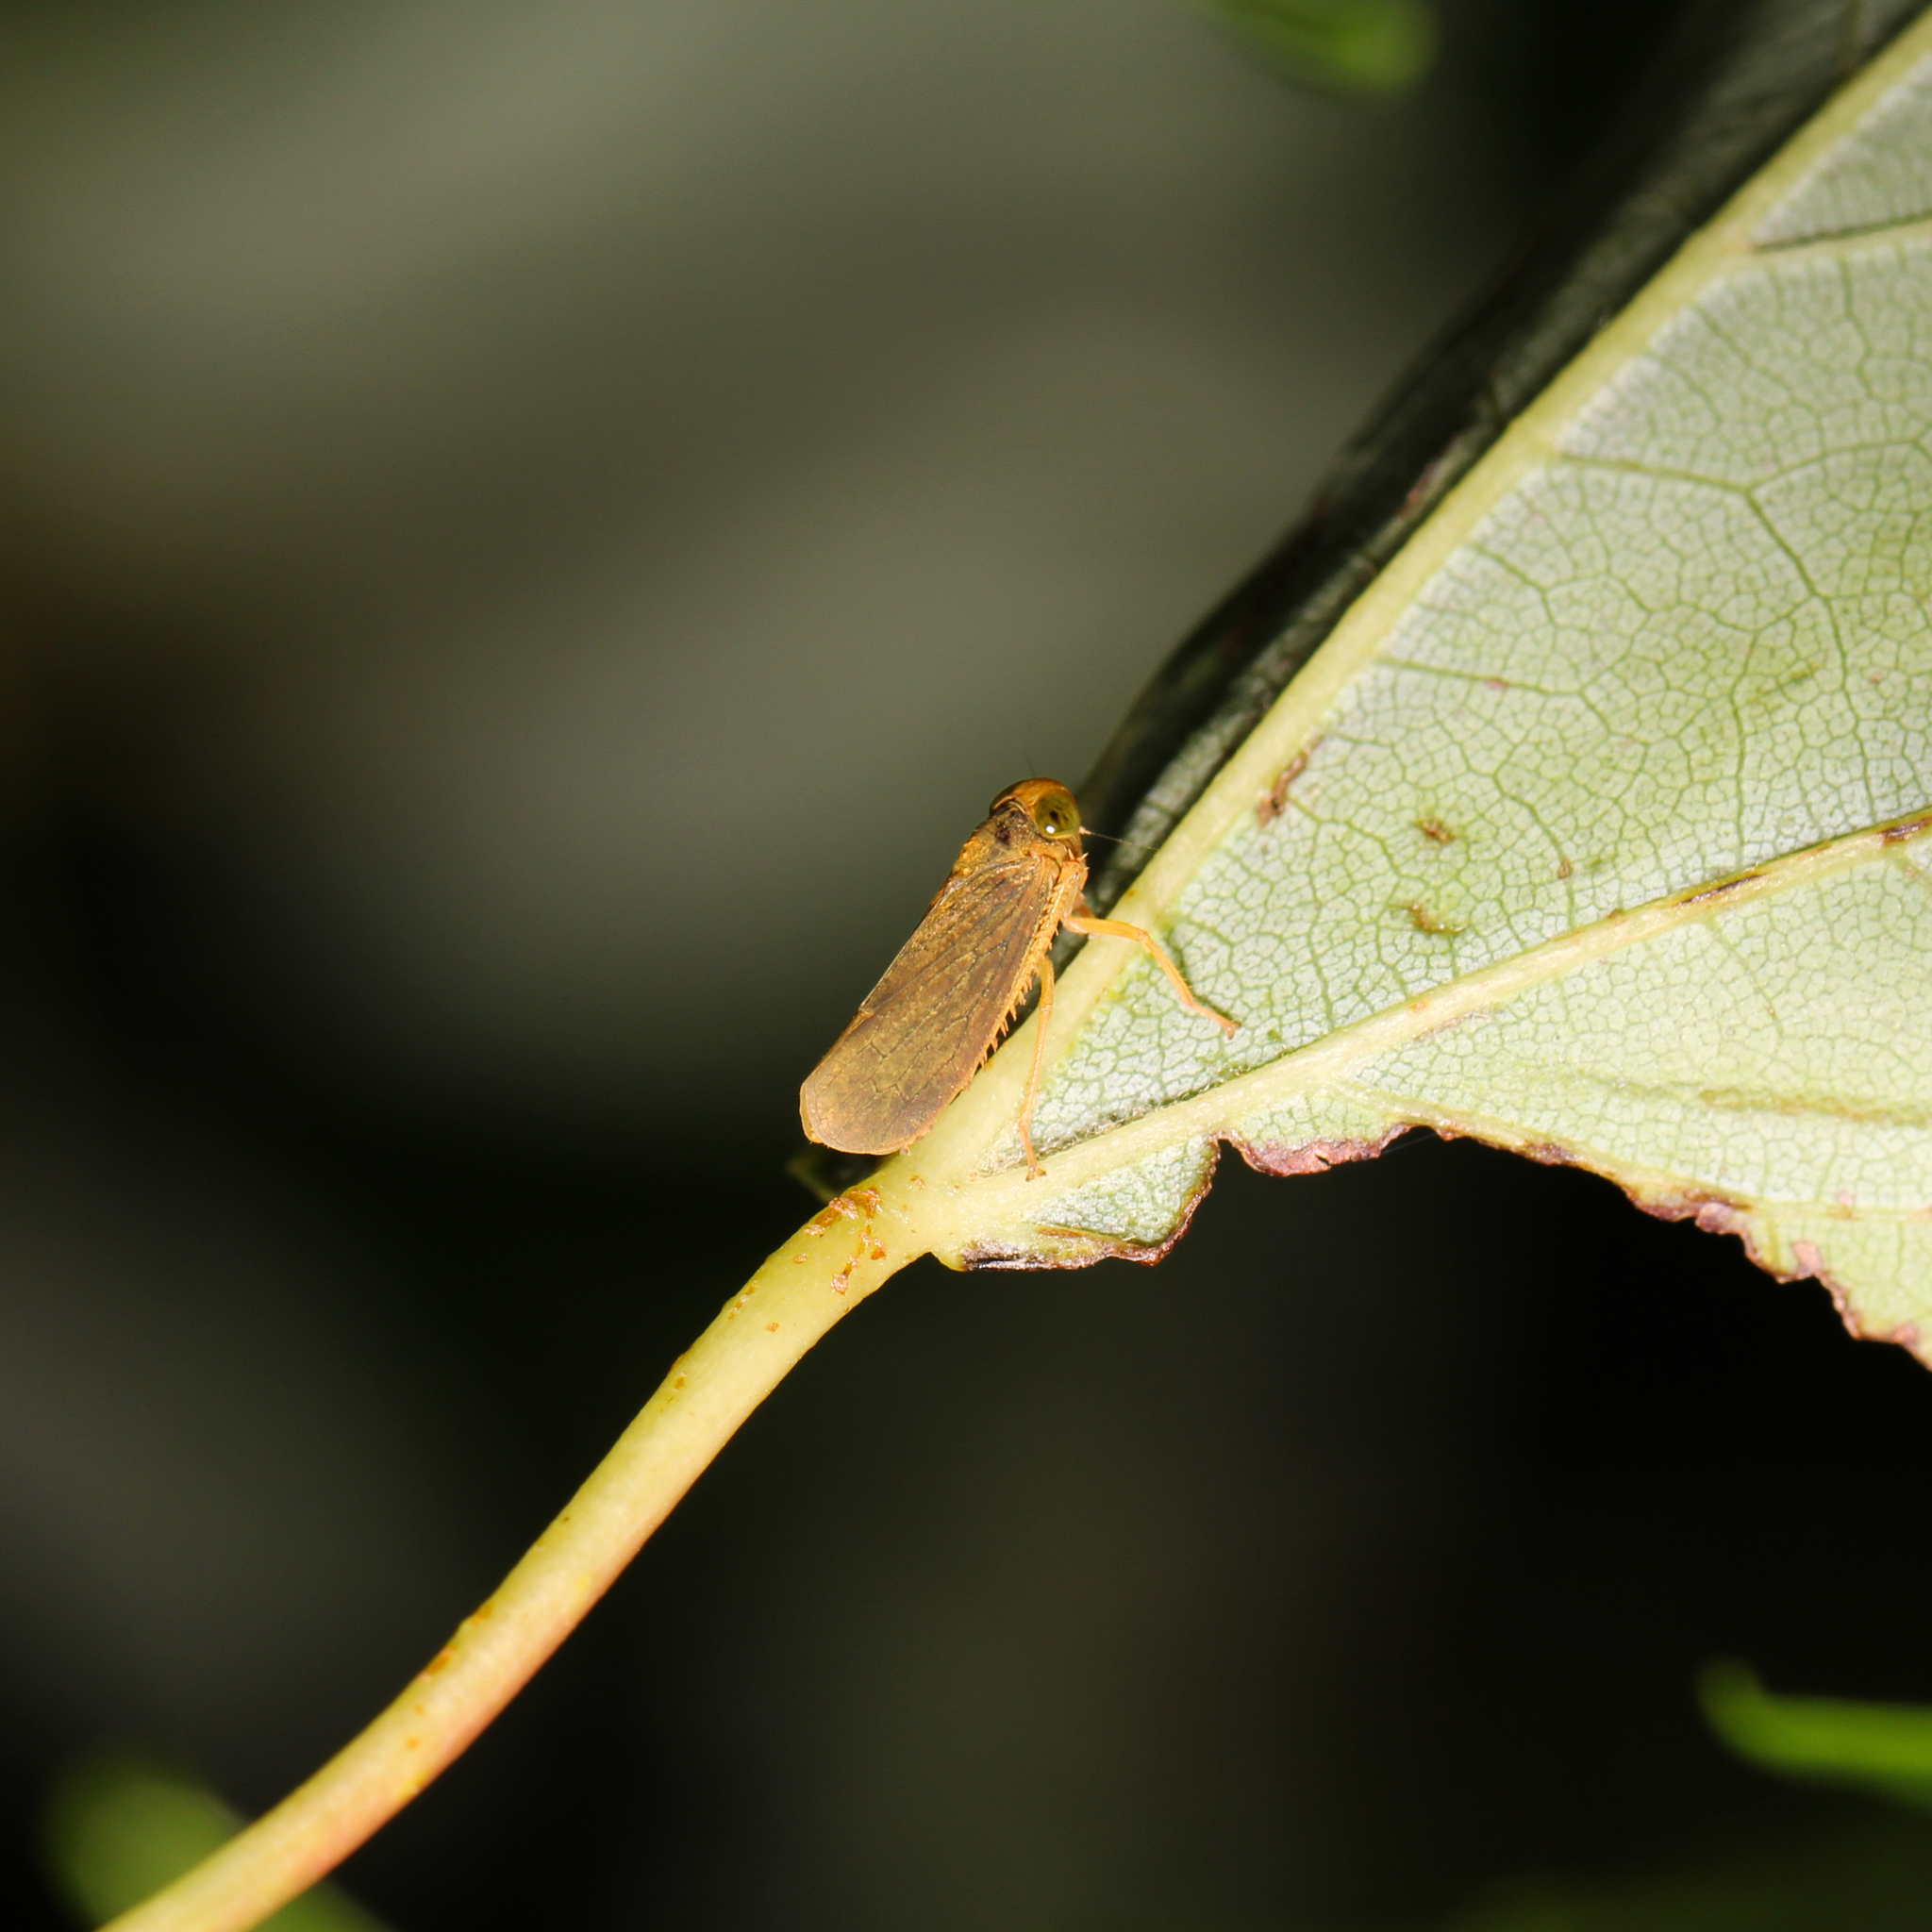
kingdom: Animalia
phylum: Arthropoda
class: Insecta
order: Hemiptera
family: Cicadellidae
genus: Jikradia
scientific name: Jikradia olitoria
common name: Coppery leafhopper
